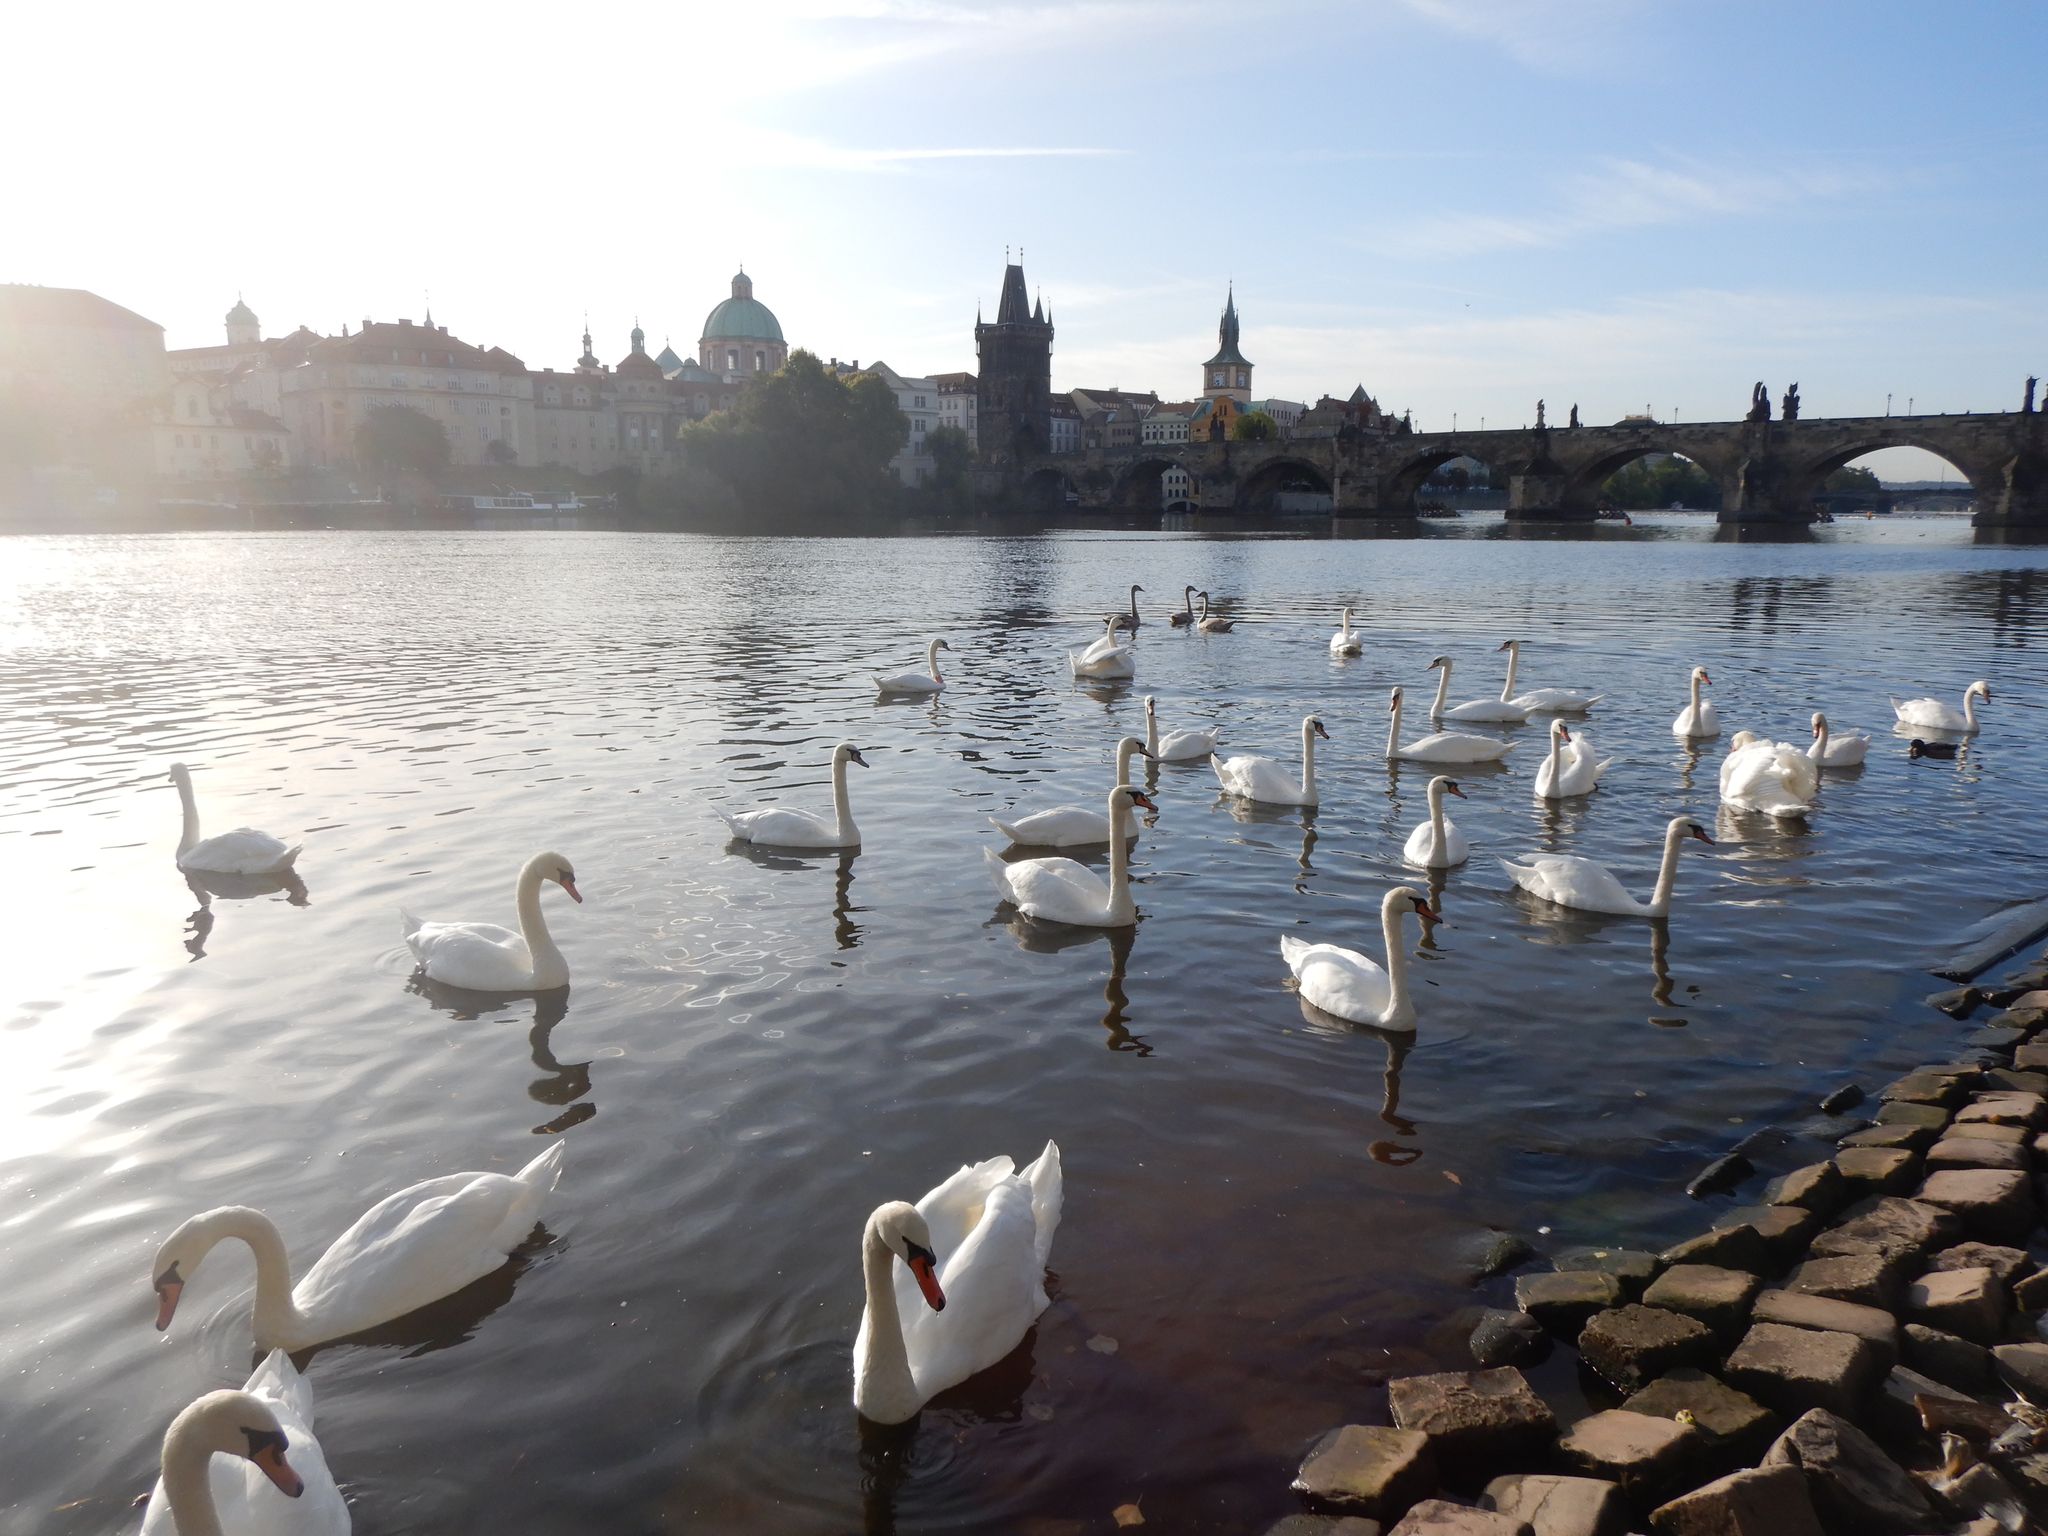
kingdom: Animalia
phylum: Chordata
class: Aves
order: Anseriformes
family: Anatidae
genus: Cygnus
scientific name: Cygnus olor
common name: Mute swan
